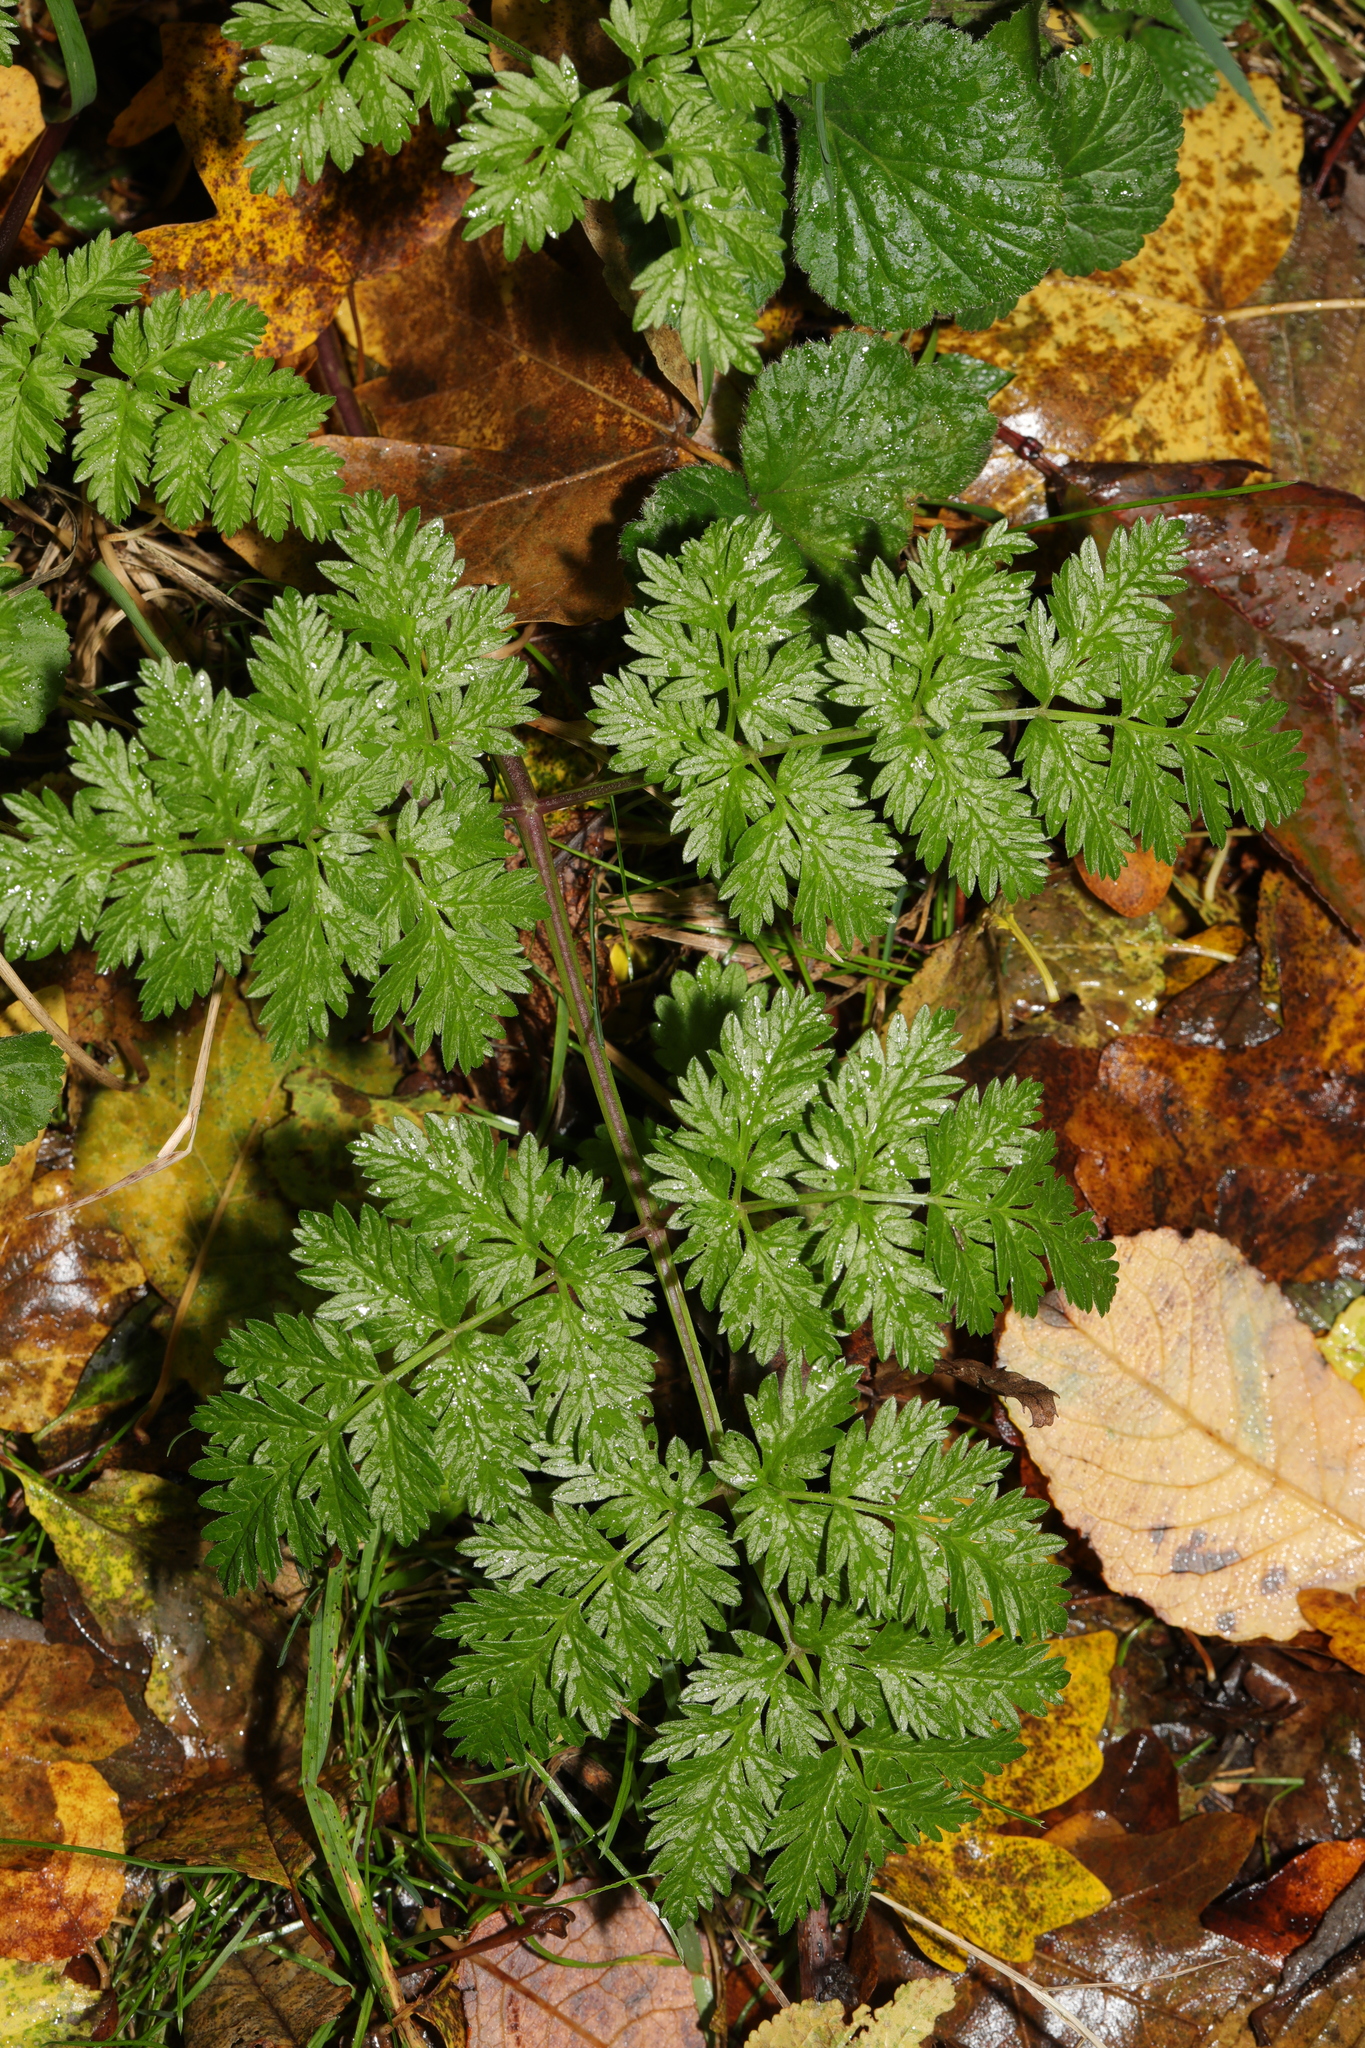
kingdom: Plantae
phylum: Tracheophyta
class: Magnoliopsida
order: Apiales
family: Apiaceae
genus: Anthriscus
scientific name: Anthriscus sylvestris
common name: Cow parsley
